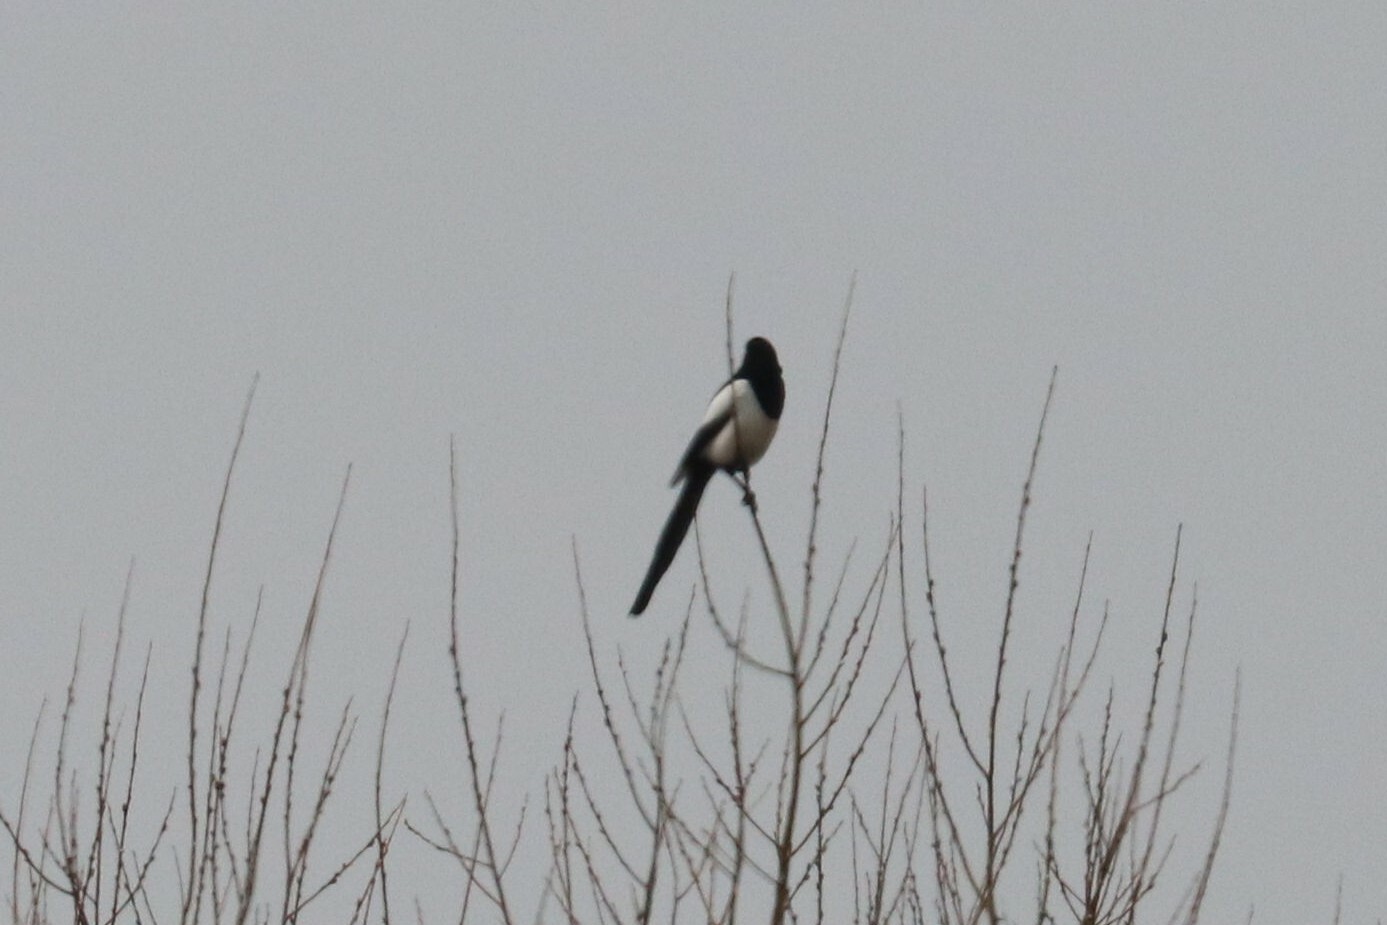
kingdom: Animalia
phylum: Chordata
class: Aves
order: Passeriformes
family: Corvidae
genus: Pica
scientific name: Pica pica
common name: Eurasian magpie
